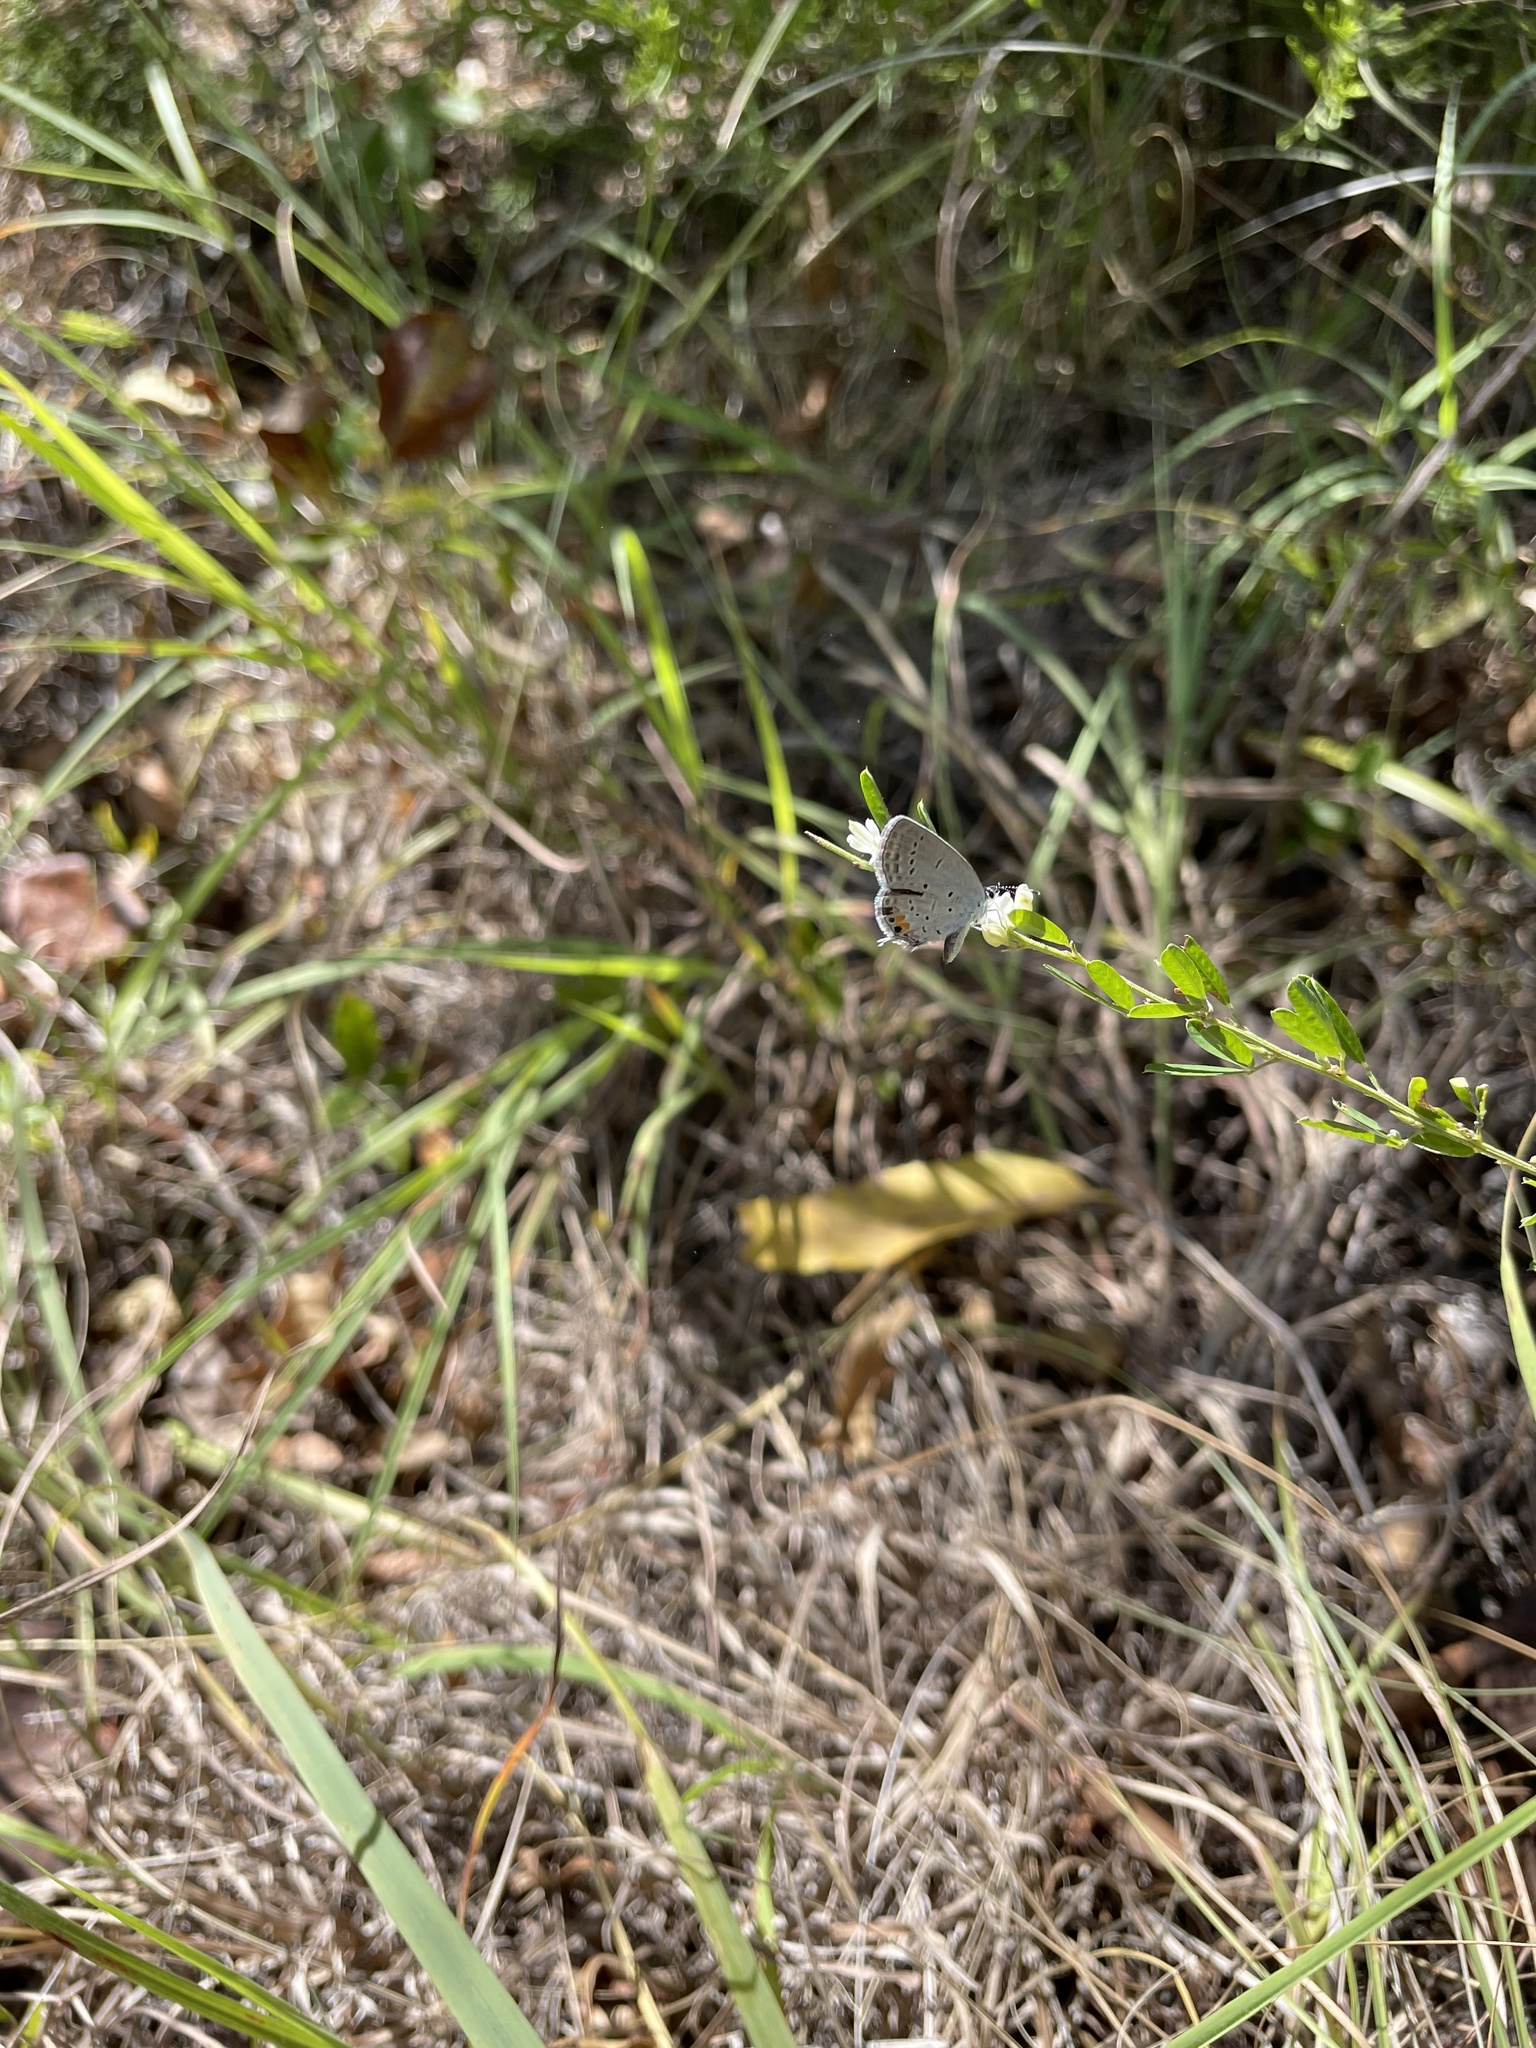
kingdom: Animalia
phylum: Arthropoda
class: Insecta
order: Lepidoptera
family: Lycaenidae
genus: Elkalyce
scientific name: Elkalyce comyntas
